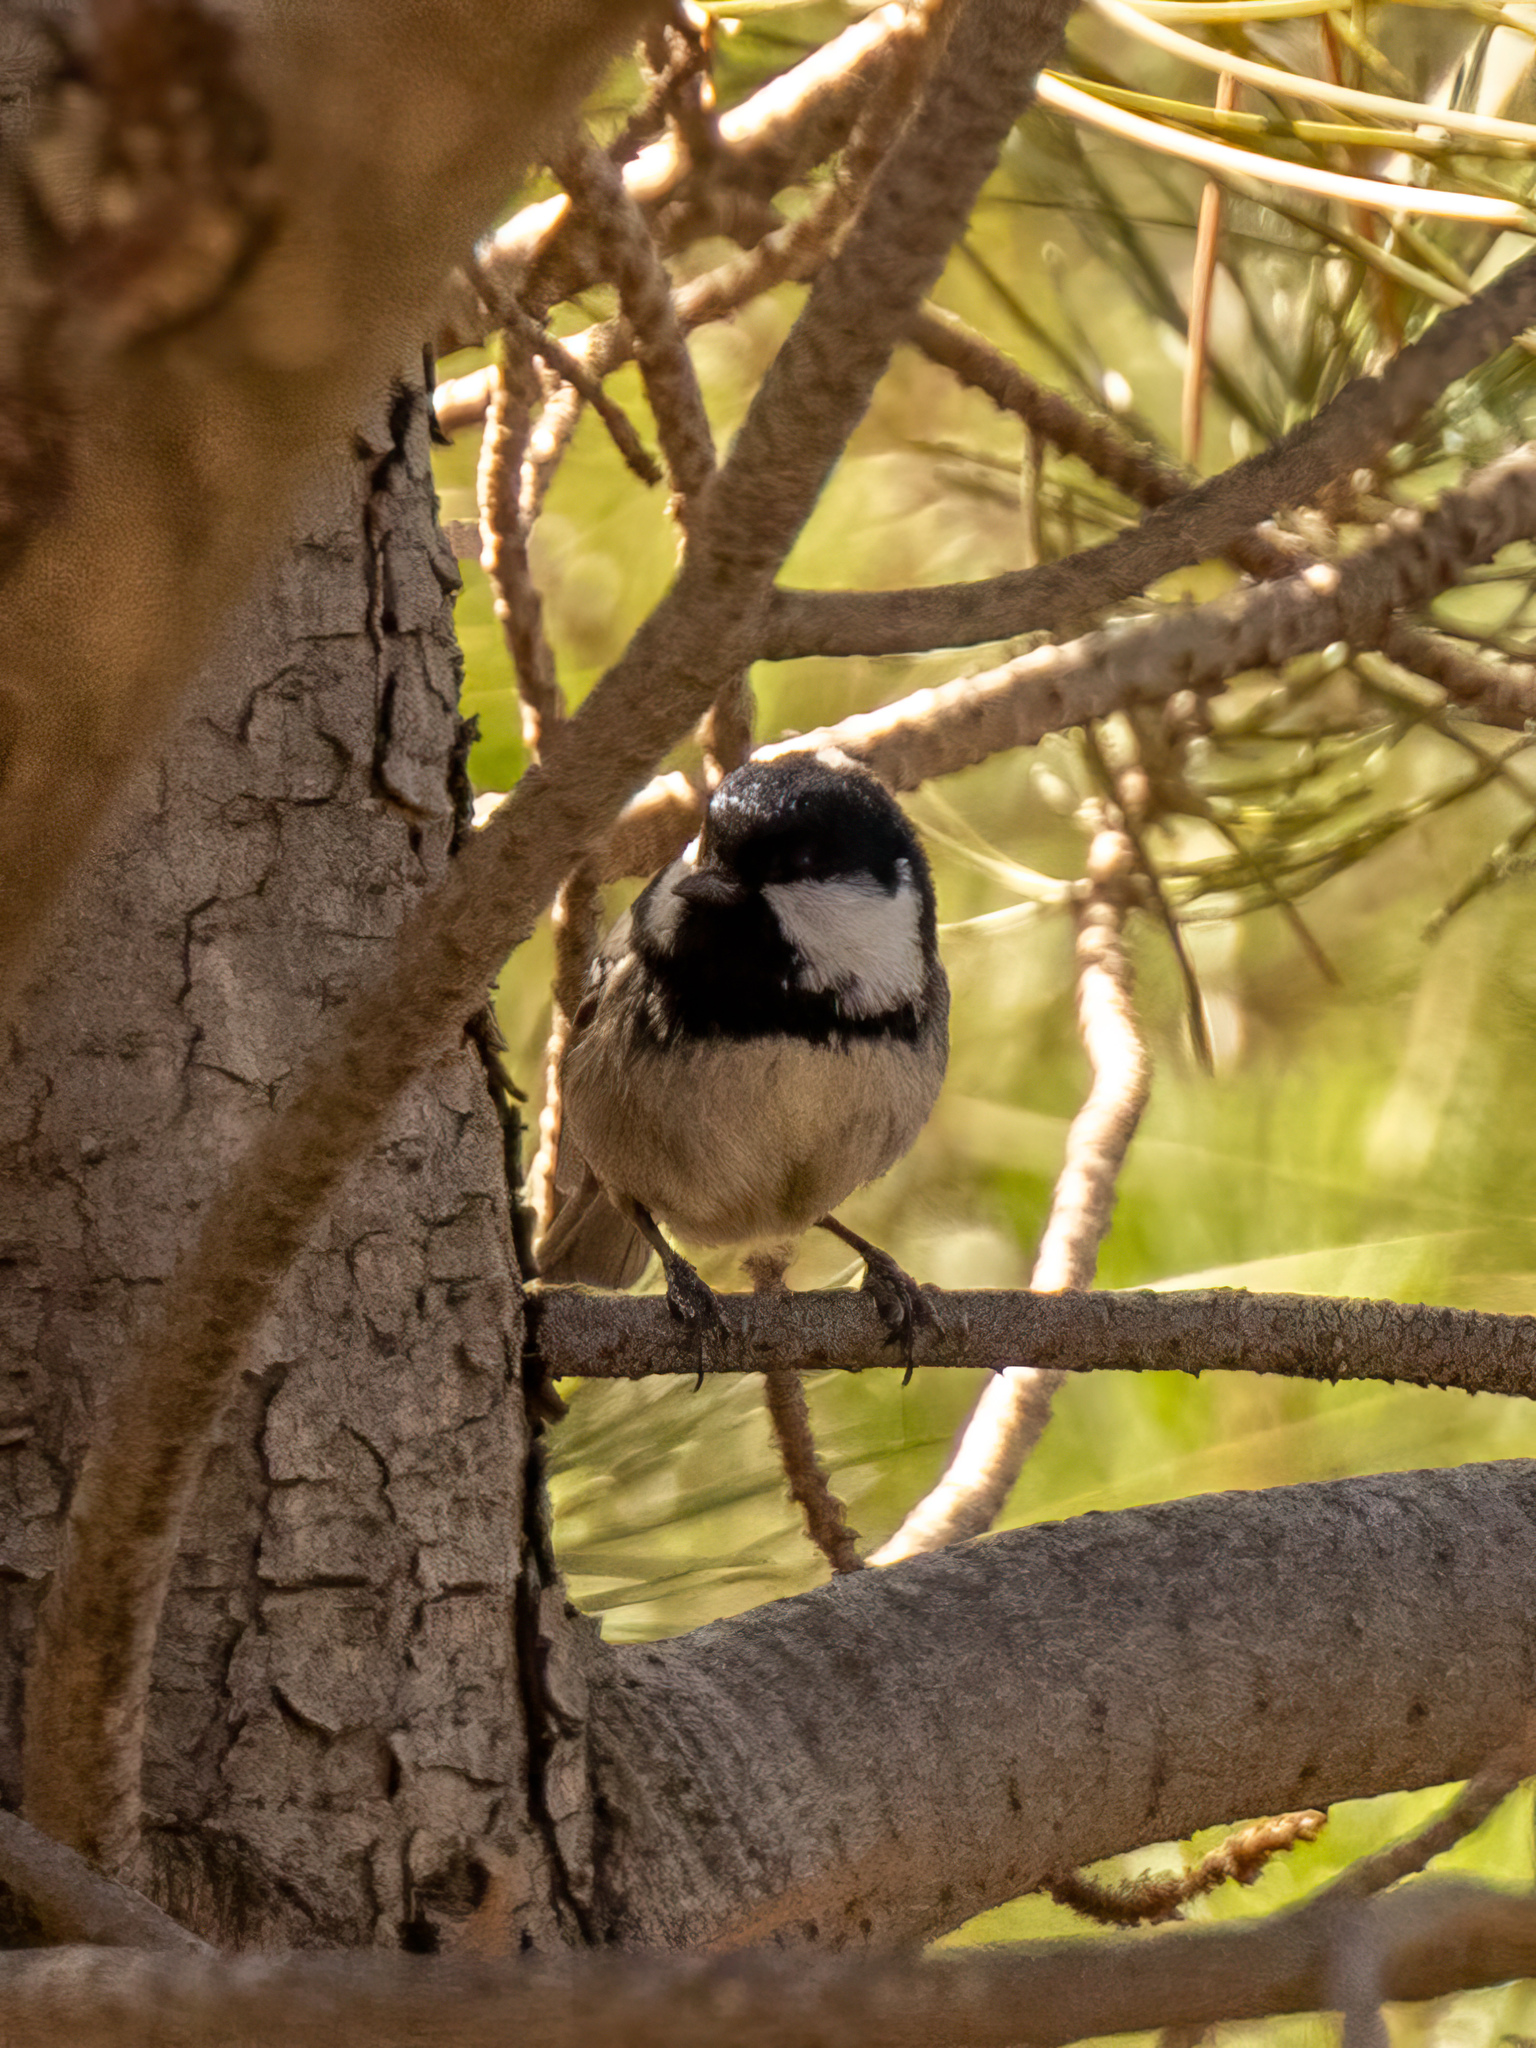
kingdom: Animalia
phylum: Chordata
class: Aves
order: Passeriformes
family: Paridae
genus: Periparus
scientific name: Periparus ater
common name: Coal tit
